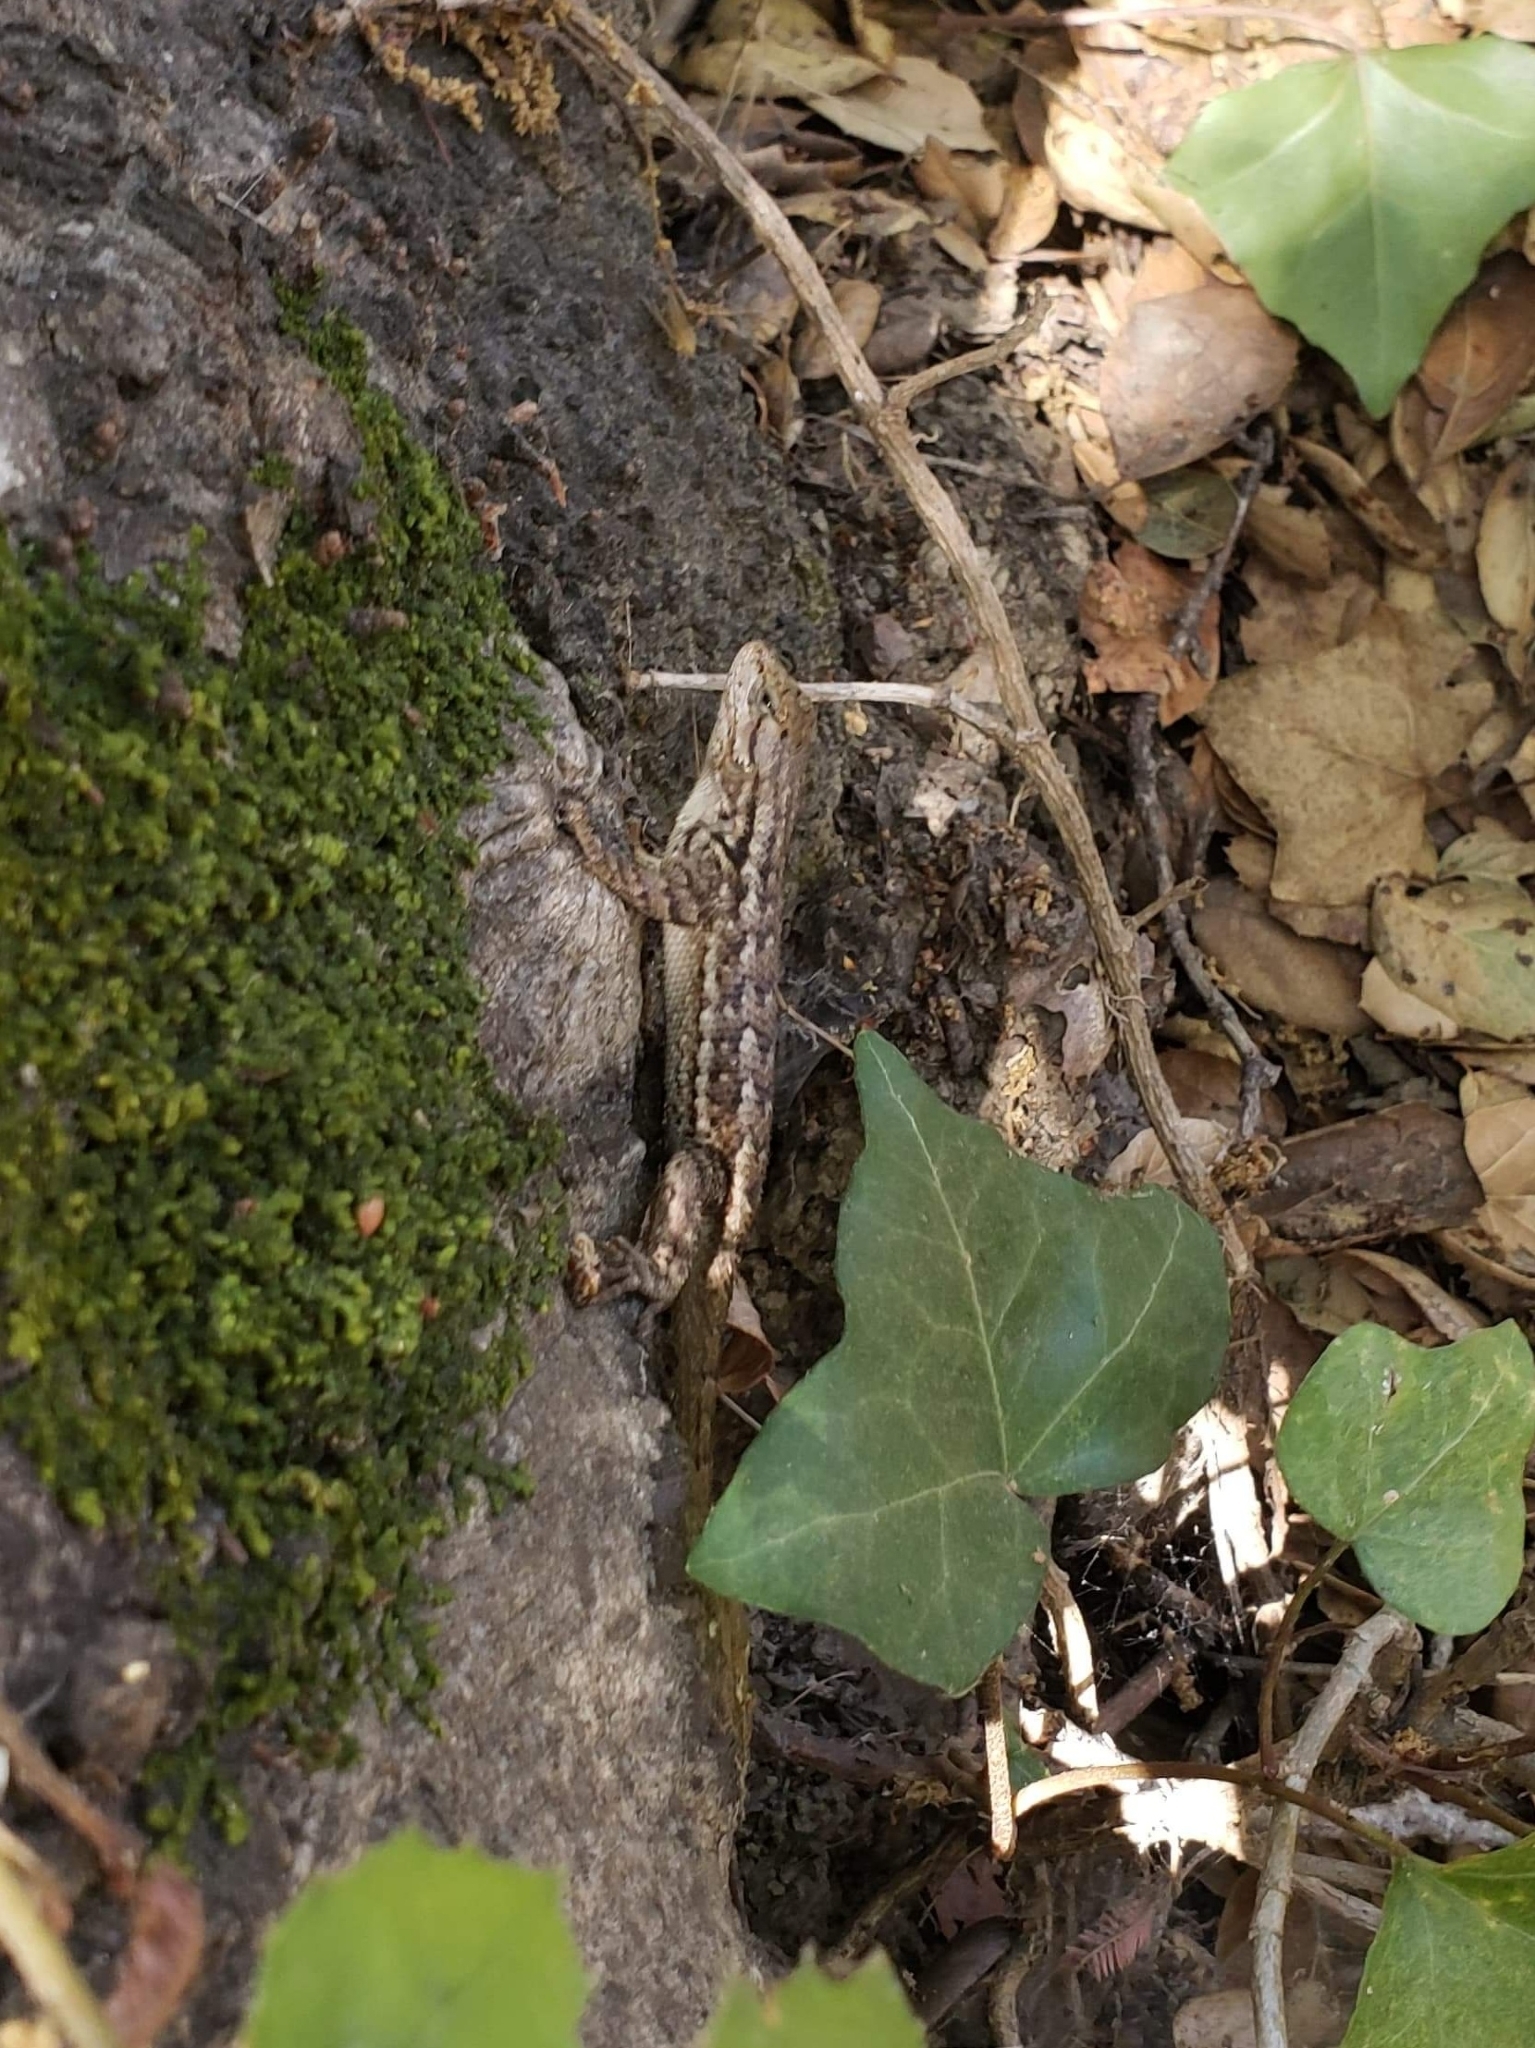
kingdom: Animalia
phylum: Chordata
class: Squamata
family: Phrynosomatidae
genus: Sceloporus
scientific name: Sceloporus occidentalis
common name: Western fence lizard
